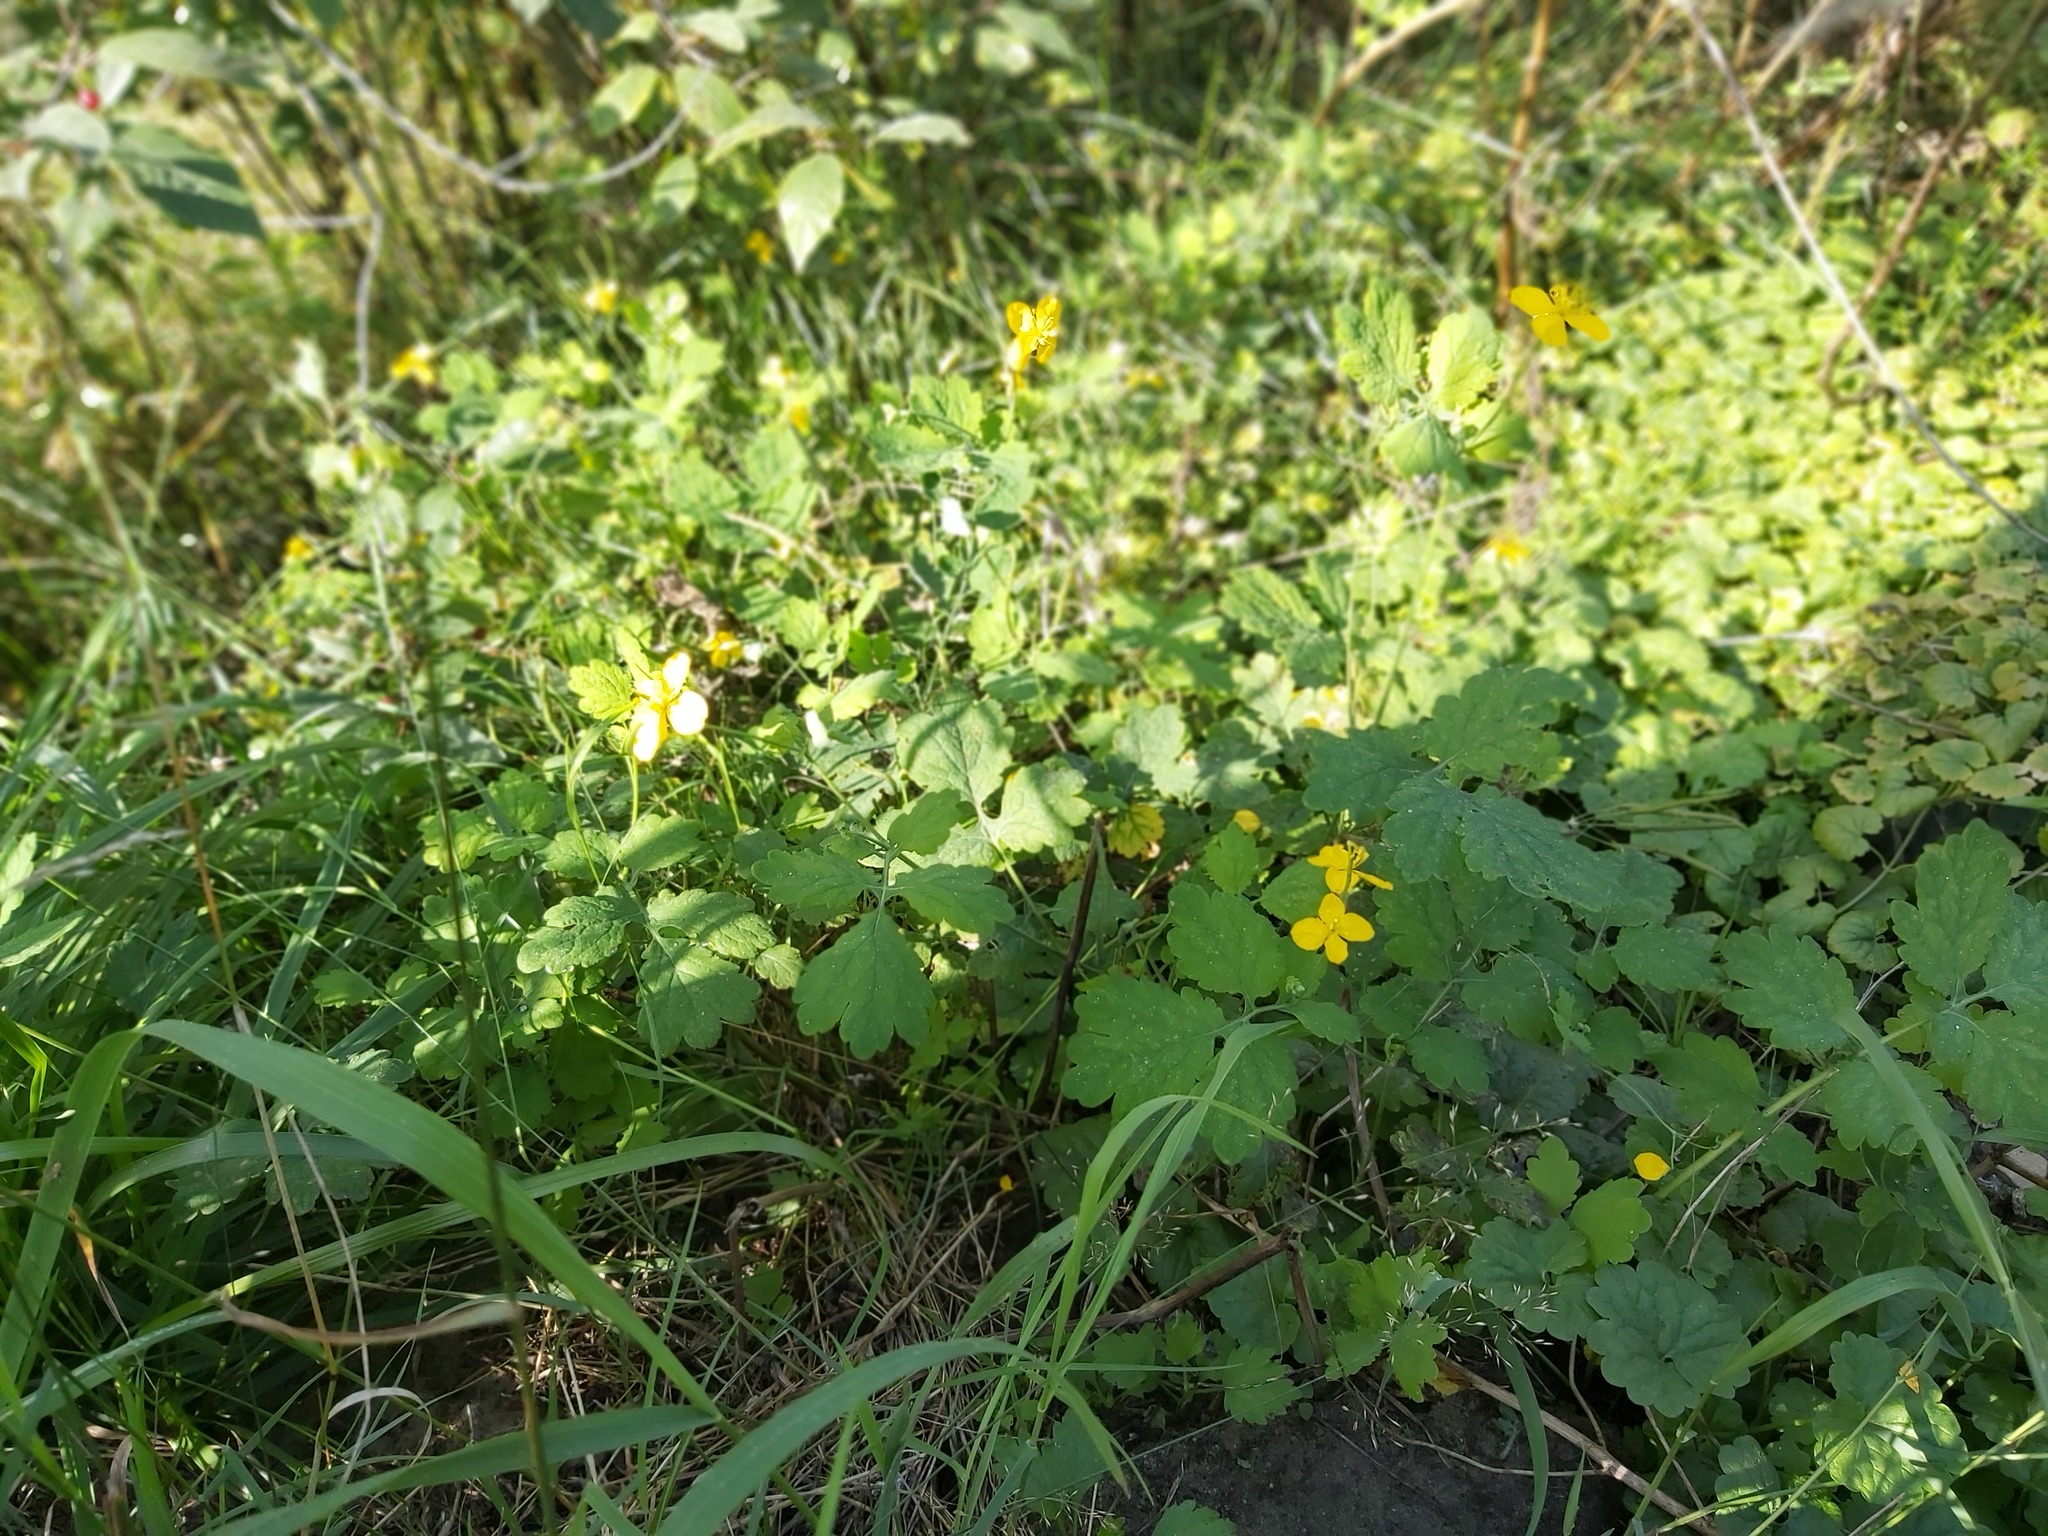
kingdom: Plantae
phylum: Tracheophyta
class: Magnoliopsida
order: Ranunculales
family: Papaveraceae
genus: Chelidonium
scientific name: Chelidonium majus
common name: Greater celandine
